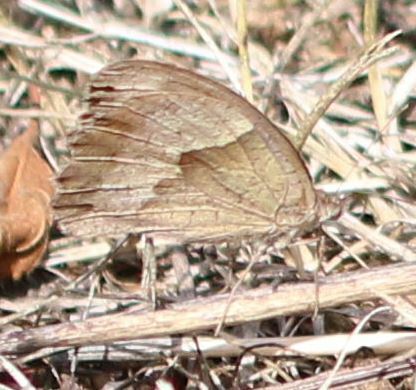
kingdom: Animalia
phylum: Arthropoda
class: Insecta
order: Lepidoptera
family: Nymphalidae
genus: Maniola
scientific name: Maniola jurtina
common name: Meadow brown
